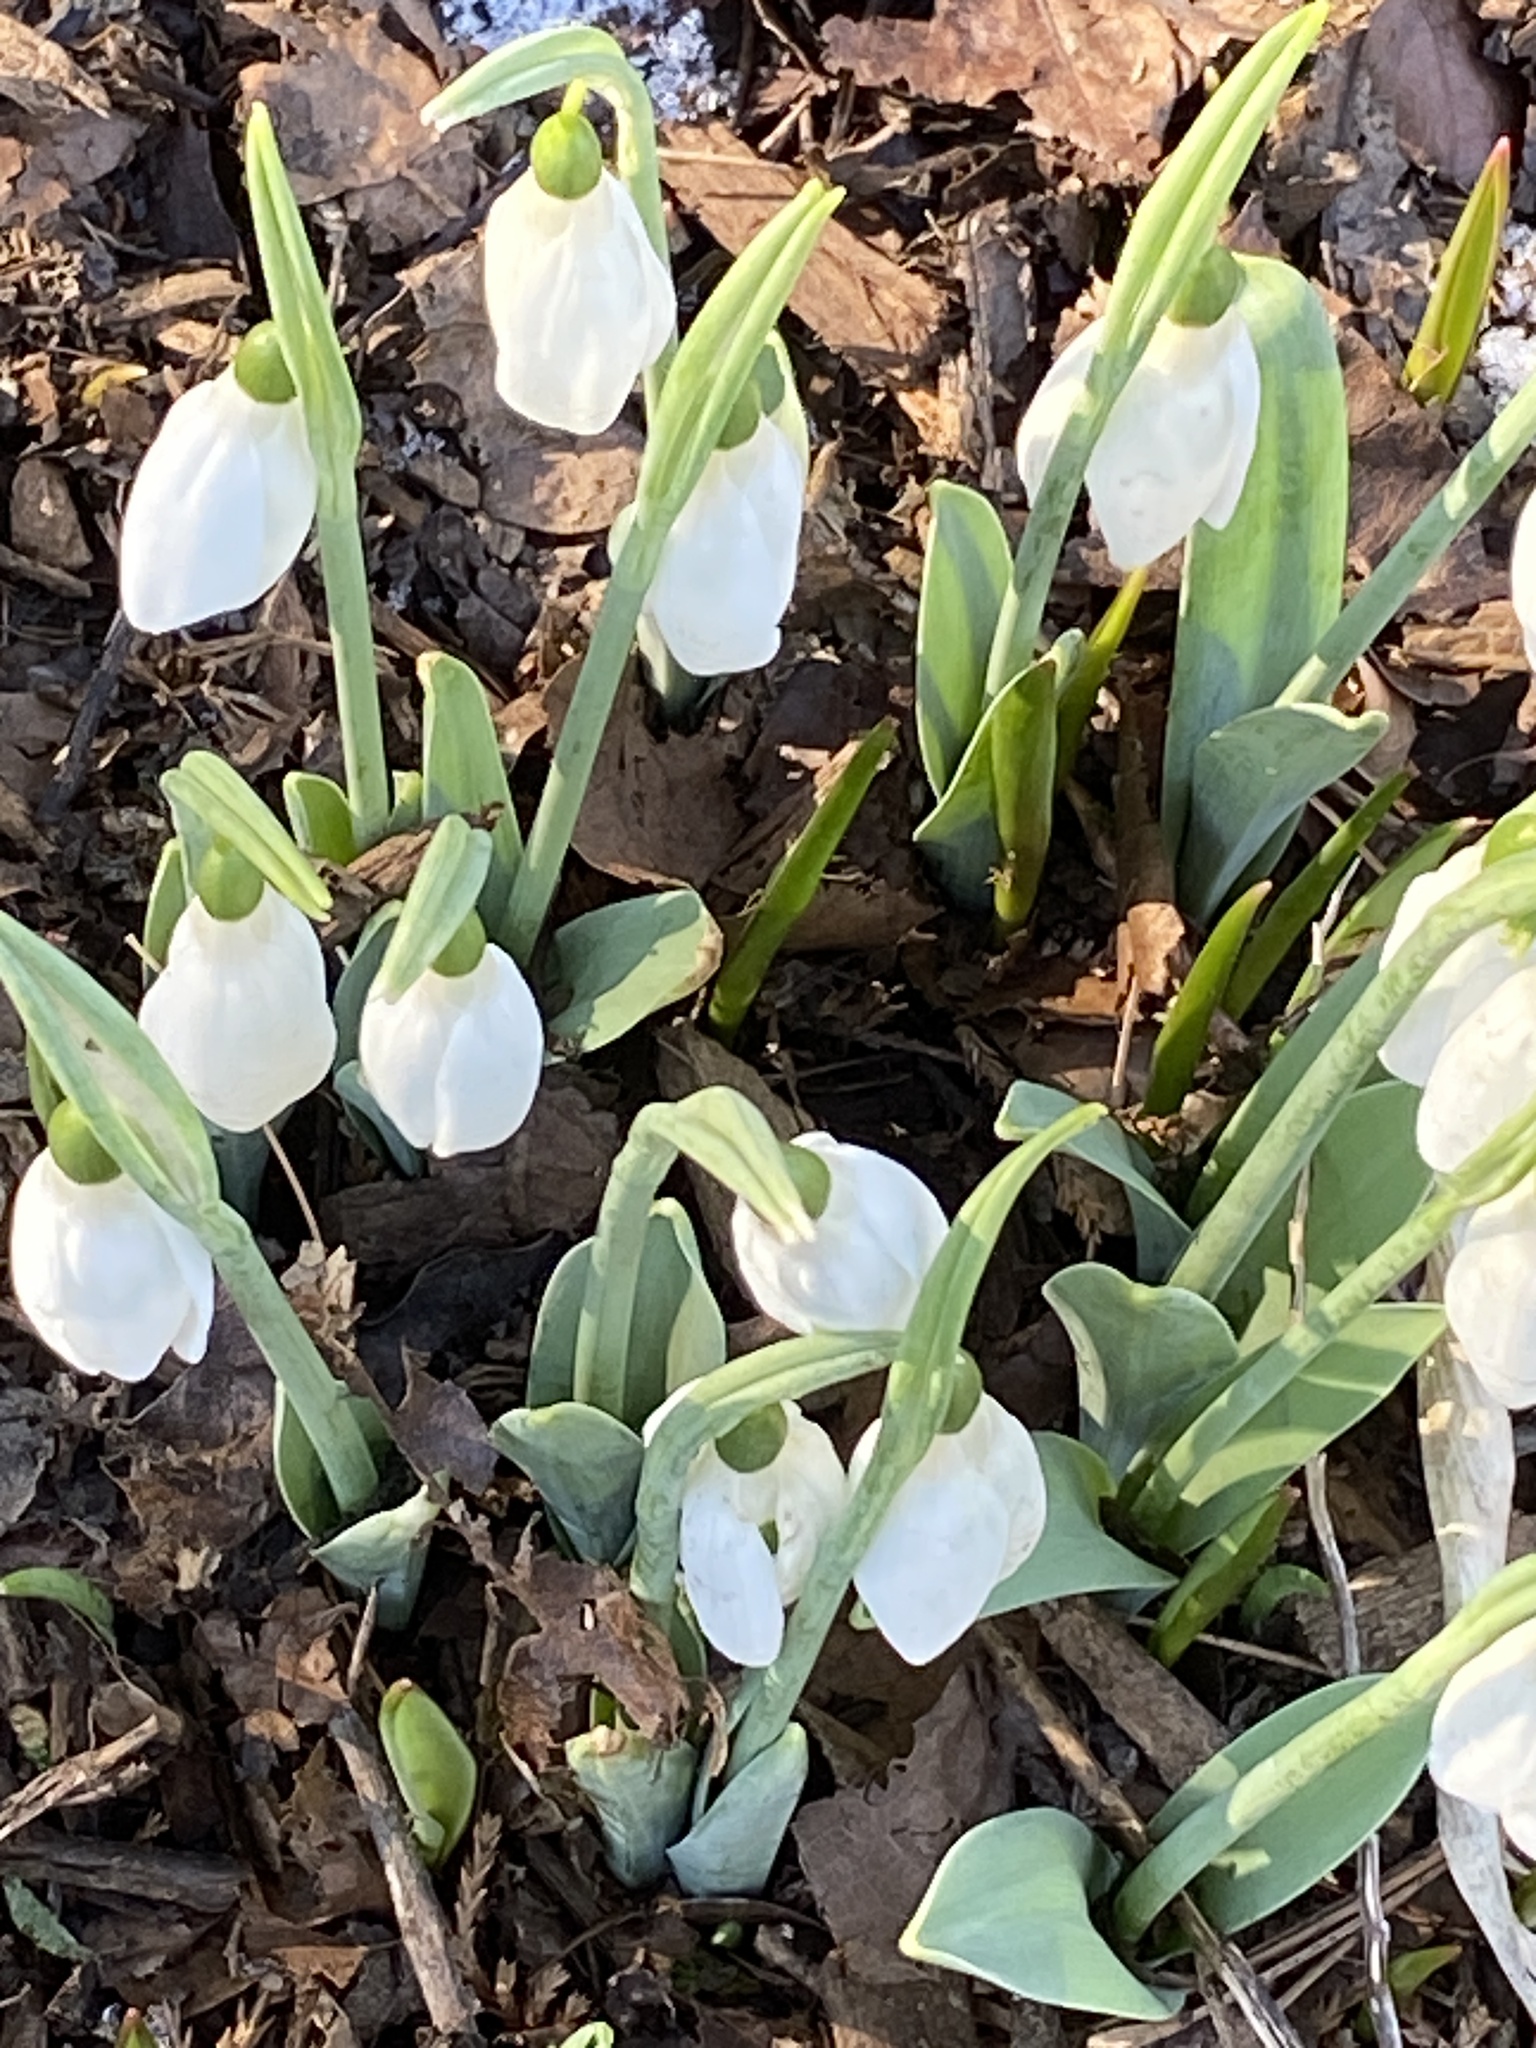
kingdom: Plantae
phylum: Tracheophyta
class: Liliopsida
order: Asparagales
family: Amaryllidaceae
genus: Galanthus
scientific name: Galanthus elwesii
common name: Greater snowdrop
